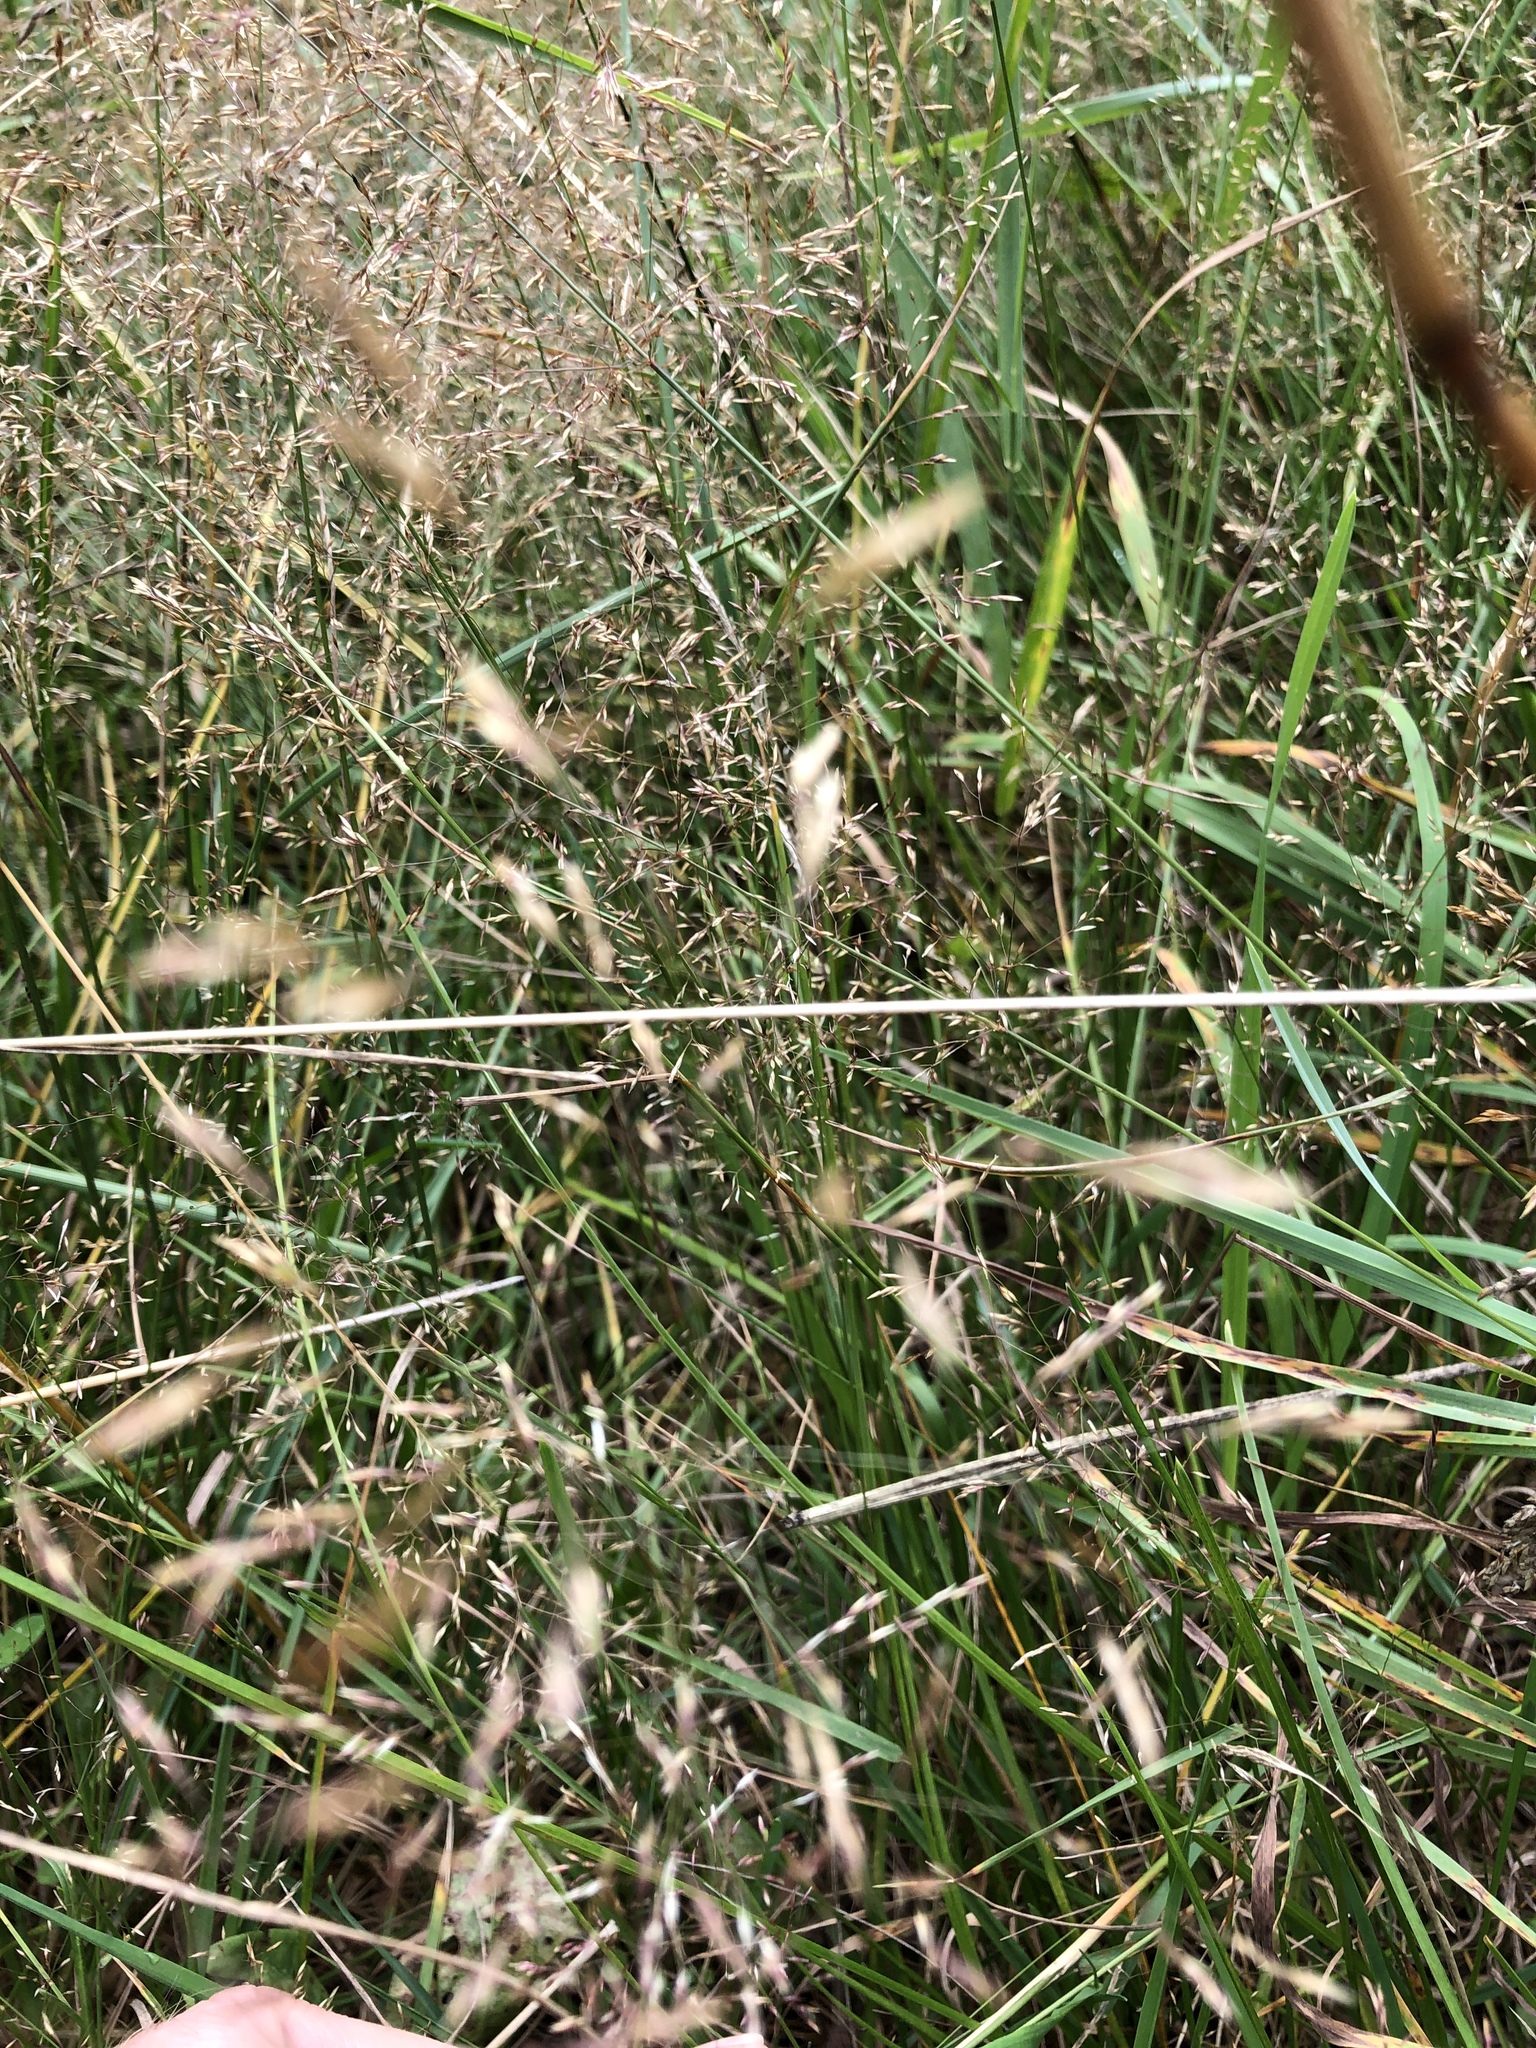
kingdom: Plantae
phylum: Tracheophyta
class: Liliopsida
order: Poales
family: Poaceae
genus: Agrostis
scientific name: Agrostis capillaris
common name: Colonial bentgrass
